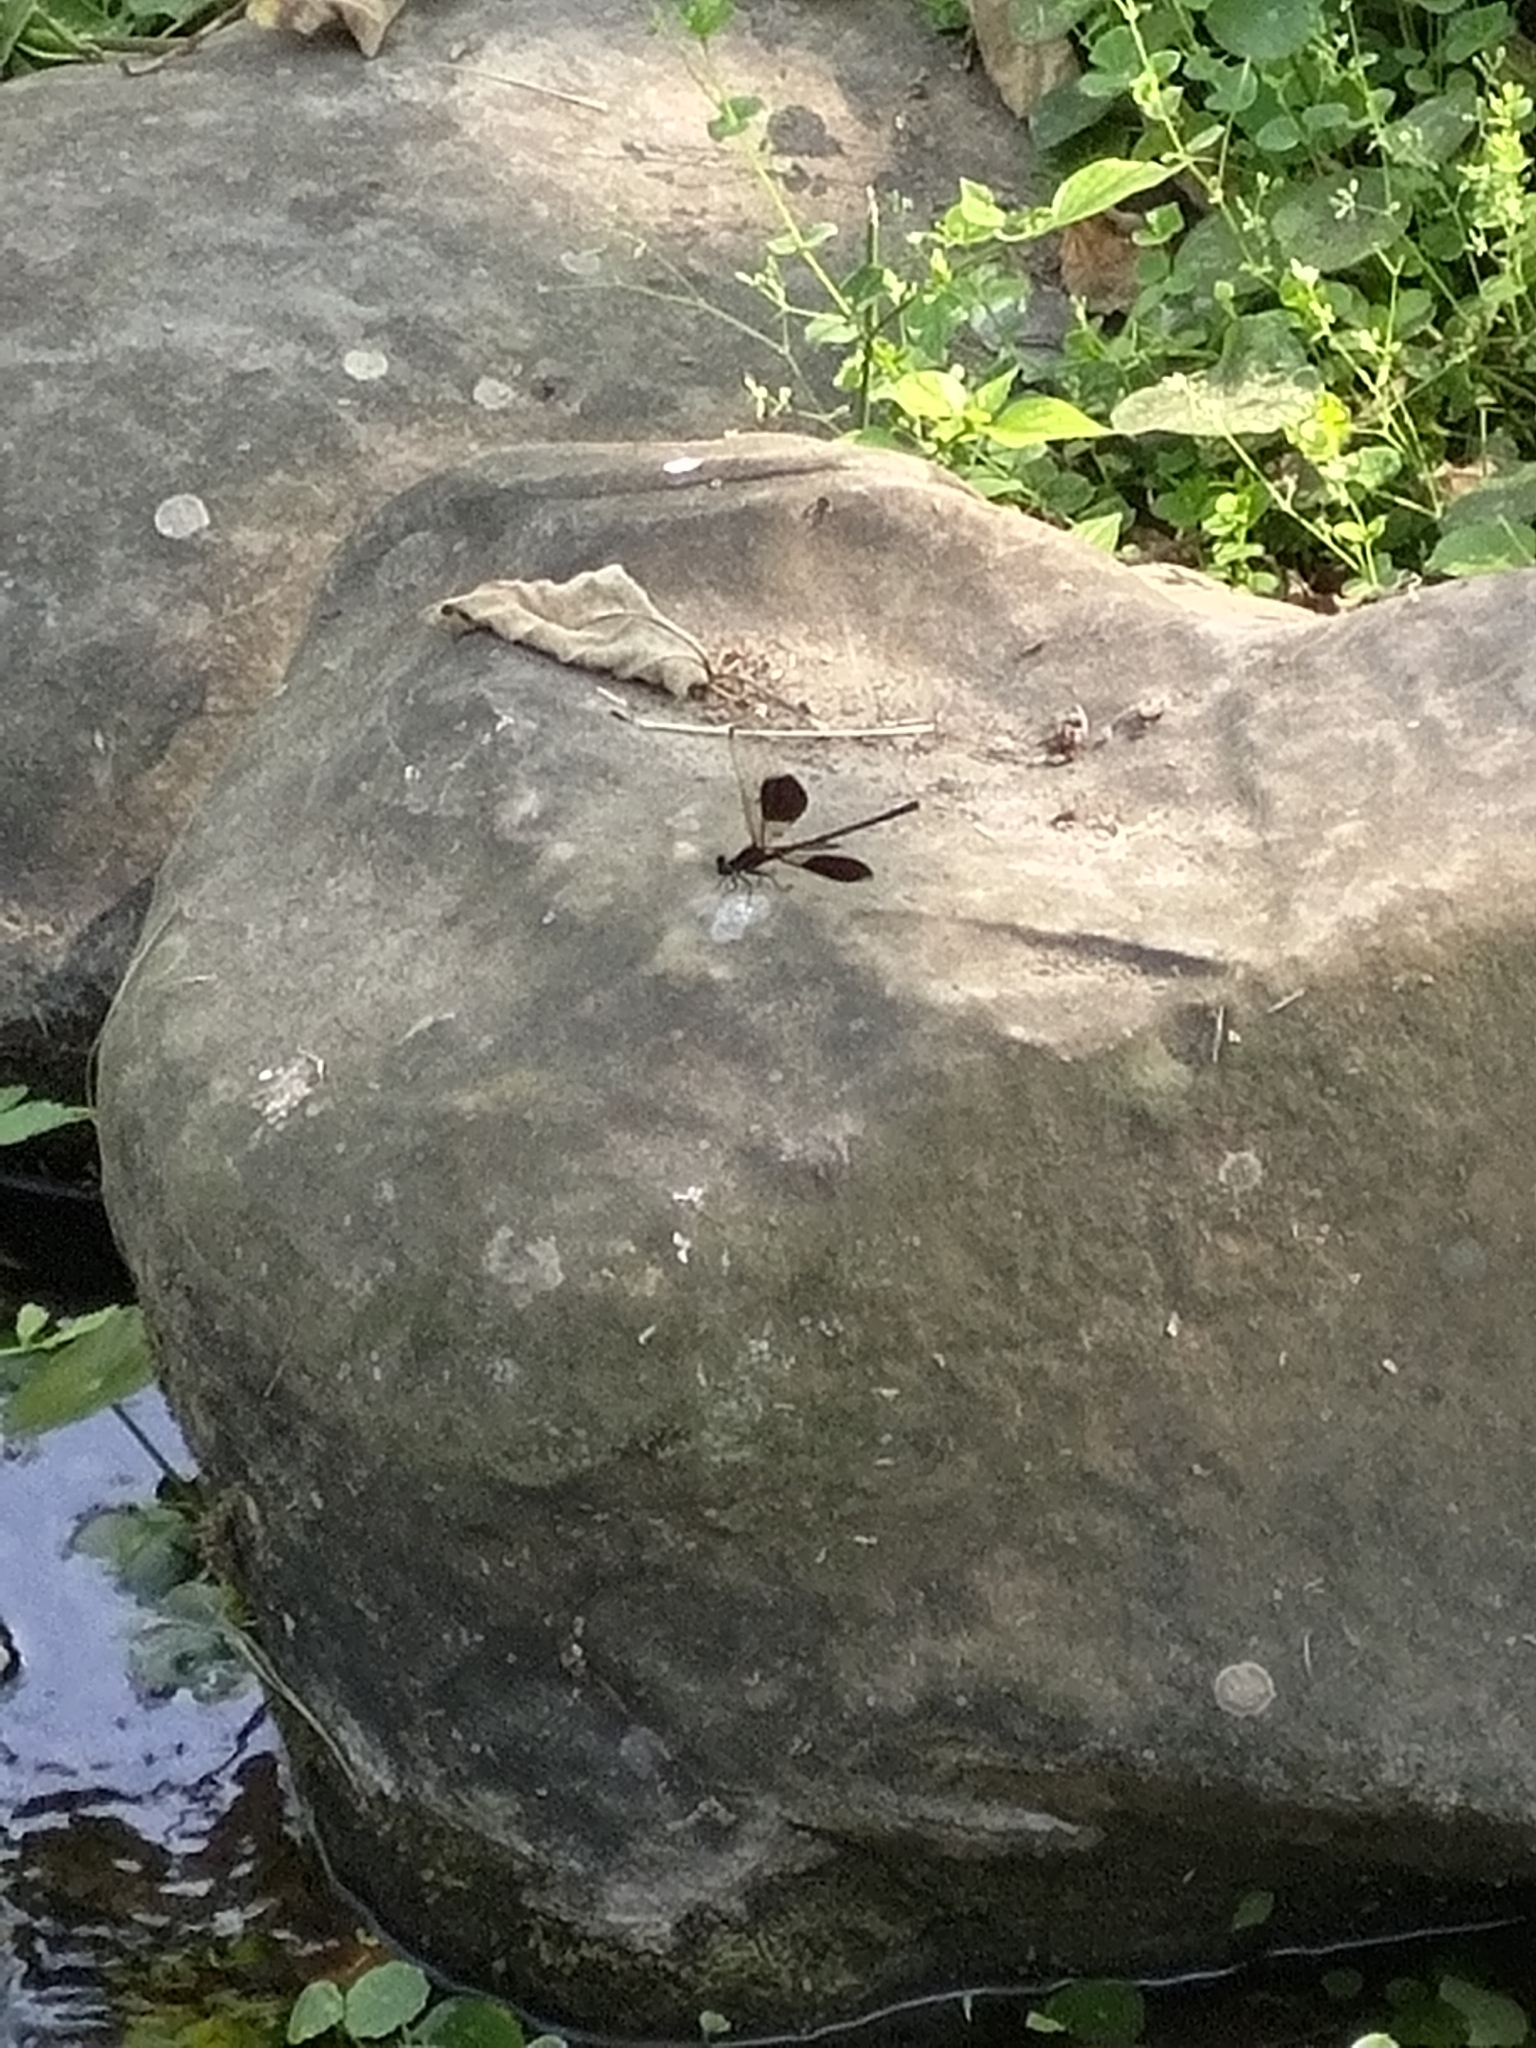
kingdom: Animalia
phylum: Arthropoda
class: Insecta
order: Odonata
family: Euphaeidae
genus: Euphaea
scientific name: Euphaea formosa
